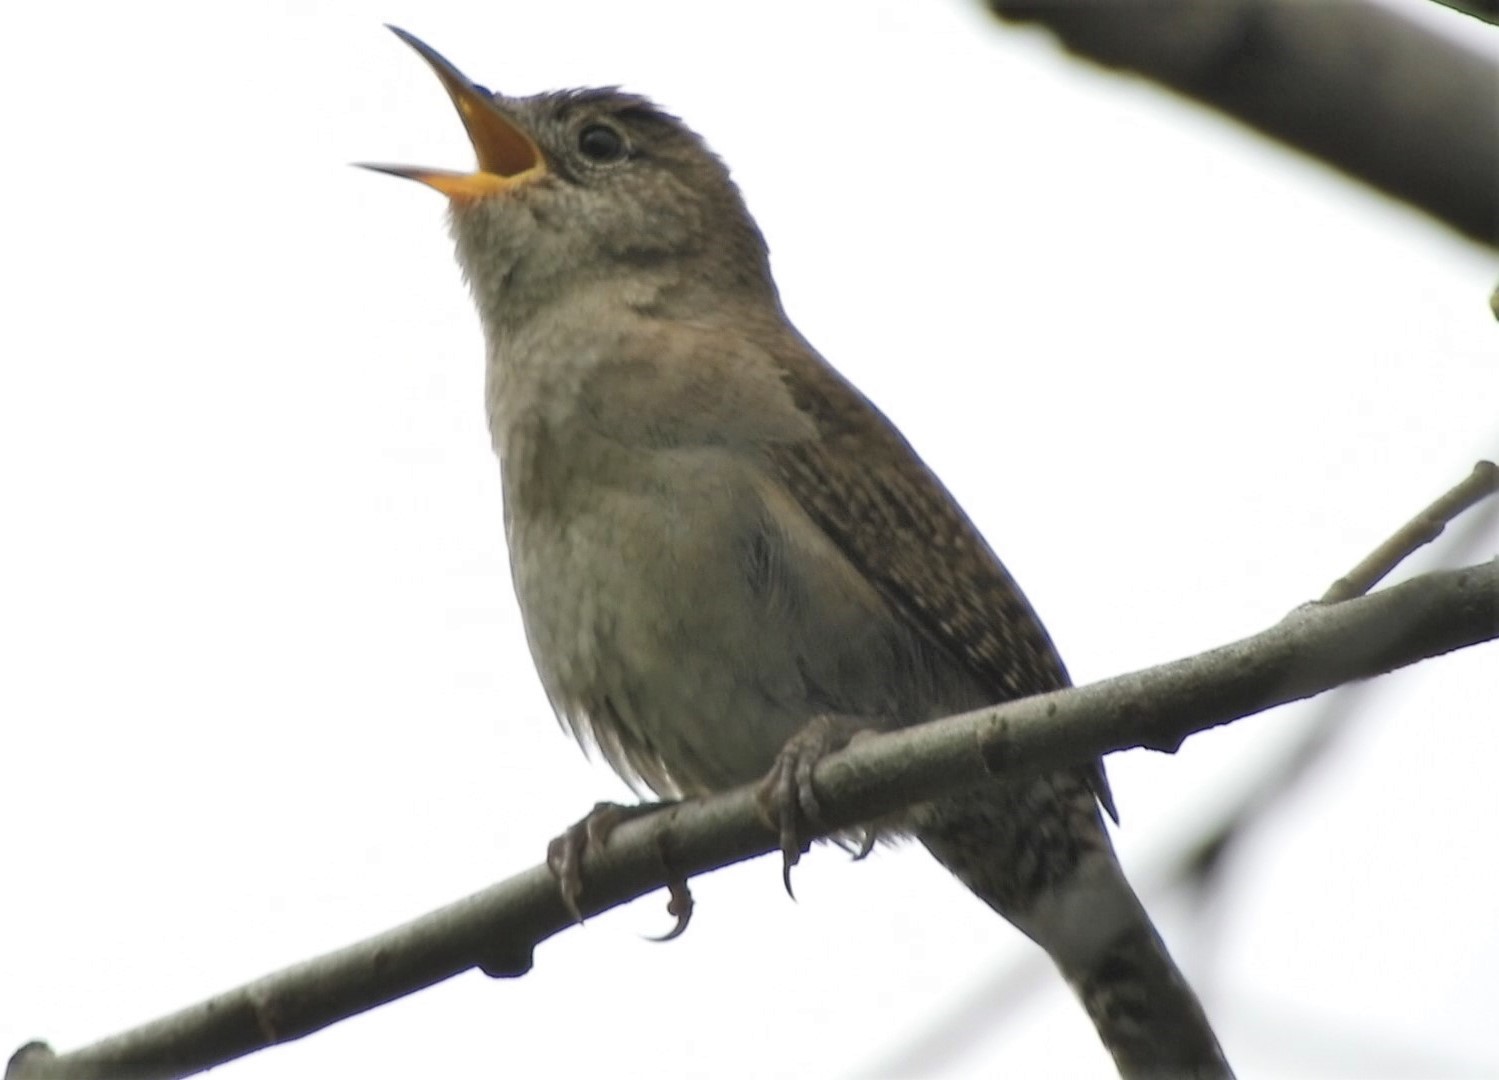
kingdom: Animalia
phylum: Chordata
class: Aves
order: Passeriformes
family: Troglodytidae
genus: Troglodytes
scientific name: Troglodytes aedon
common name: House wren
